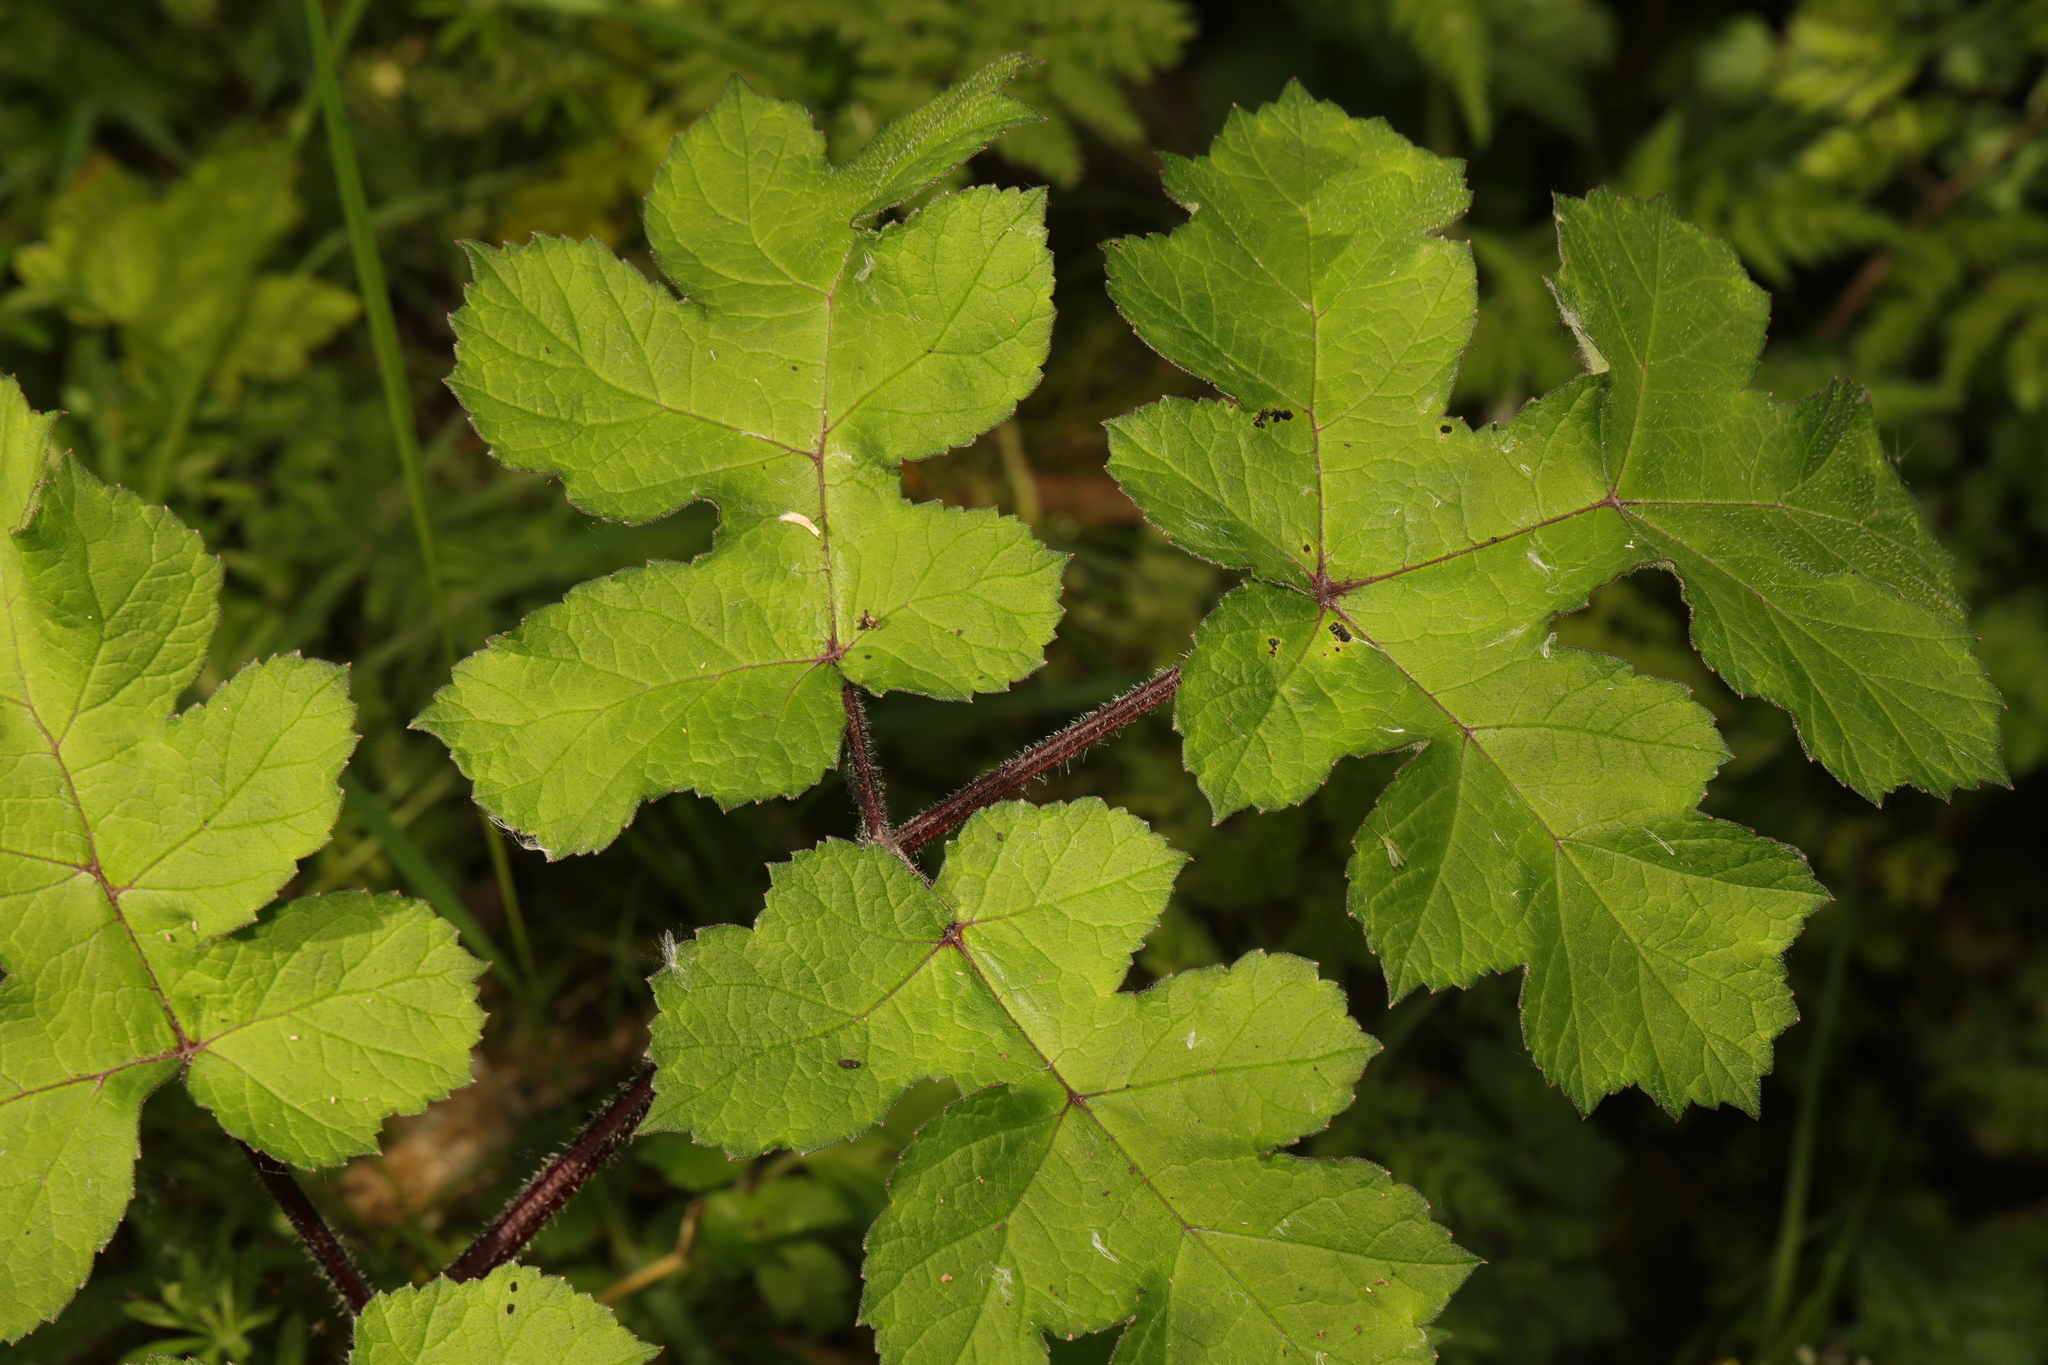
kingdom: Plantae
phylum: Tracheophyta
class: Magnoliopsida
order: Apiales
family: Apiaceae
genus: Heracleum
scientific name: Heracleum sphondylium
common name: Hogweed
